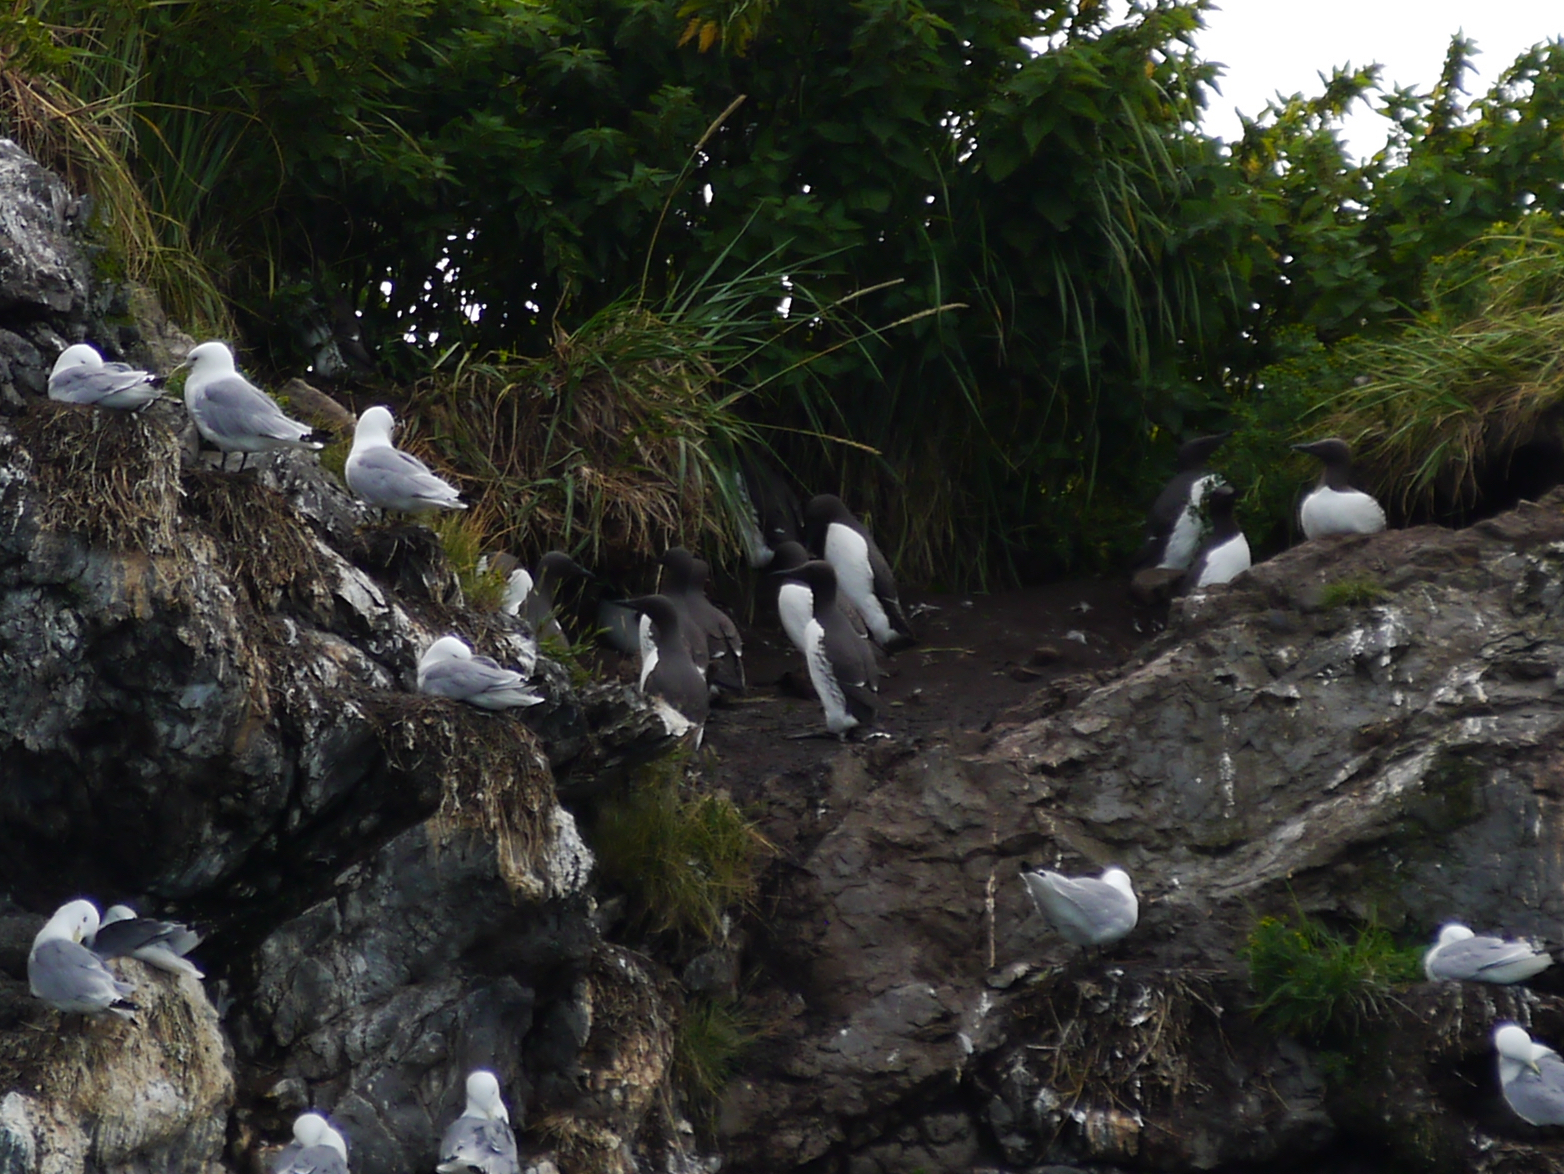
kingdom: Animalia
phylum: Chordata
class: Aves
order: Charadriiformes
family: Alcidae
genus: Uria
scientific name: Uria aalge
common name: Common murre
